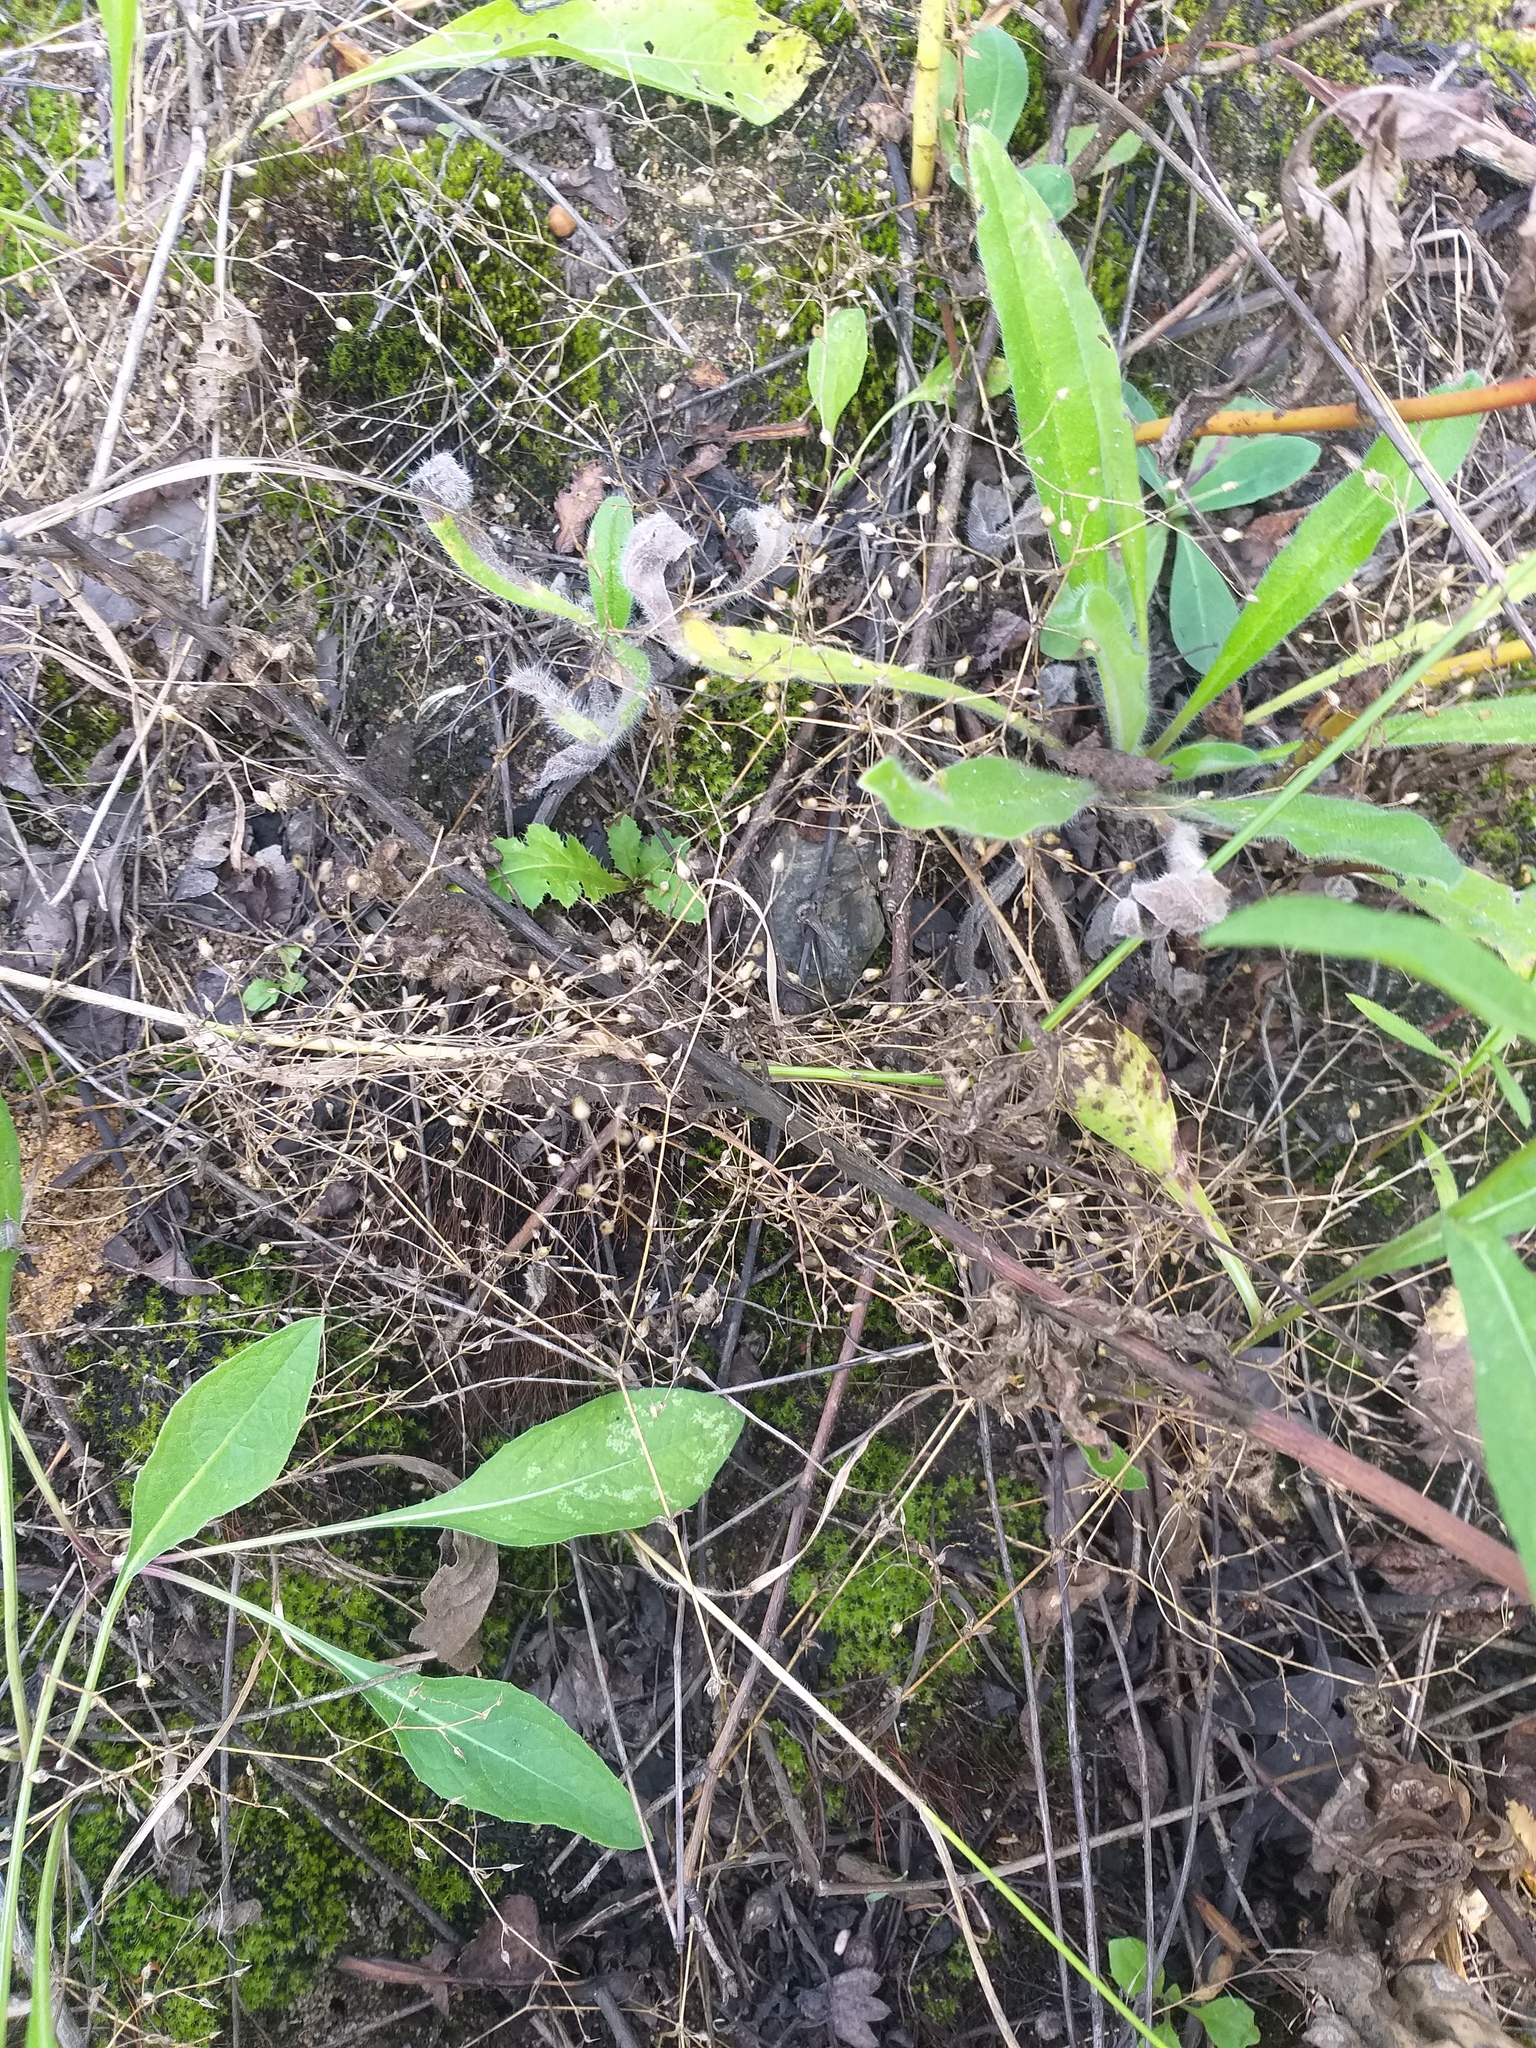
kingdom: Plantae
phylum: Tracheophyta
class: Magnoliopsida
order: Caryophyllales
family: Caryophyllaceae
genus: Arenaria
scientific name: Arenaria serpyllifolia
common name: Thyme-leaved sandwort
